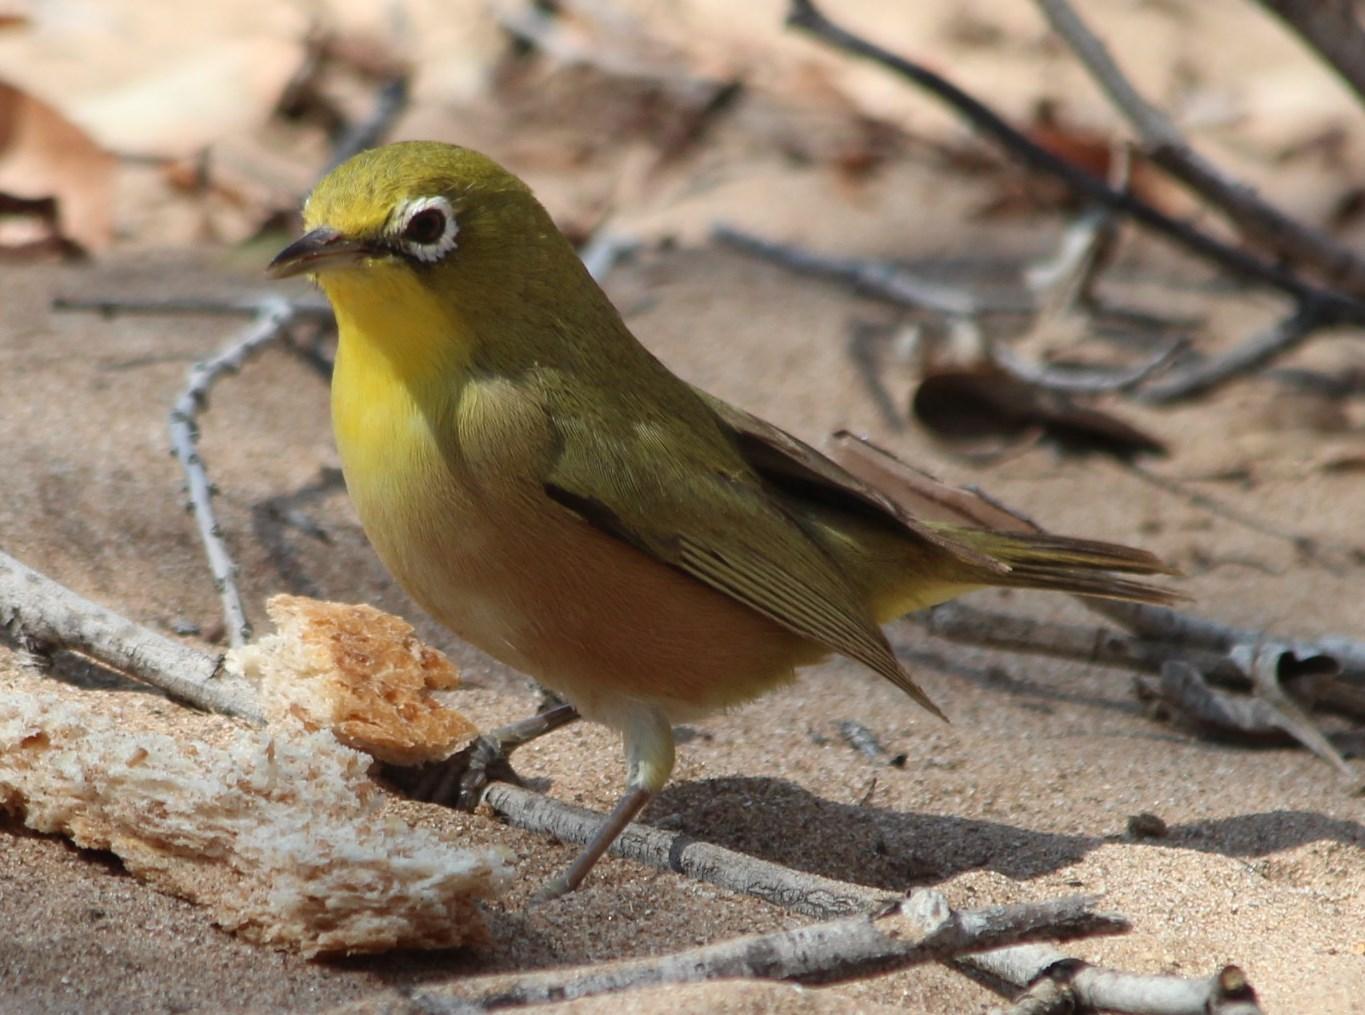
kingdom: Animalia
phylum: Chordata
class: Aves
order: Passeriformes
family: Zosteropidae
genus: Zosterops
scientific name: Zosterops pallidus
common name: Orange river white-eye
